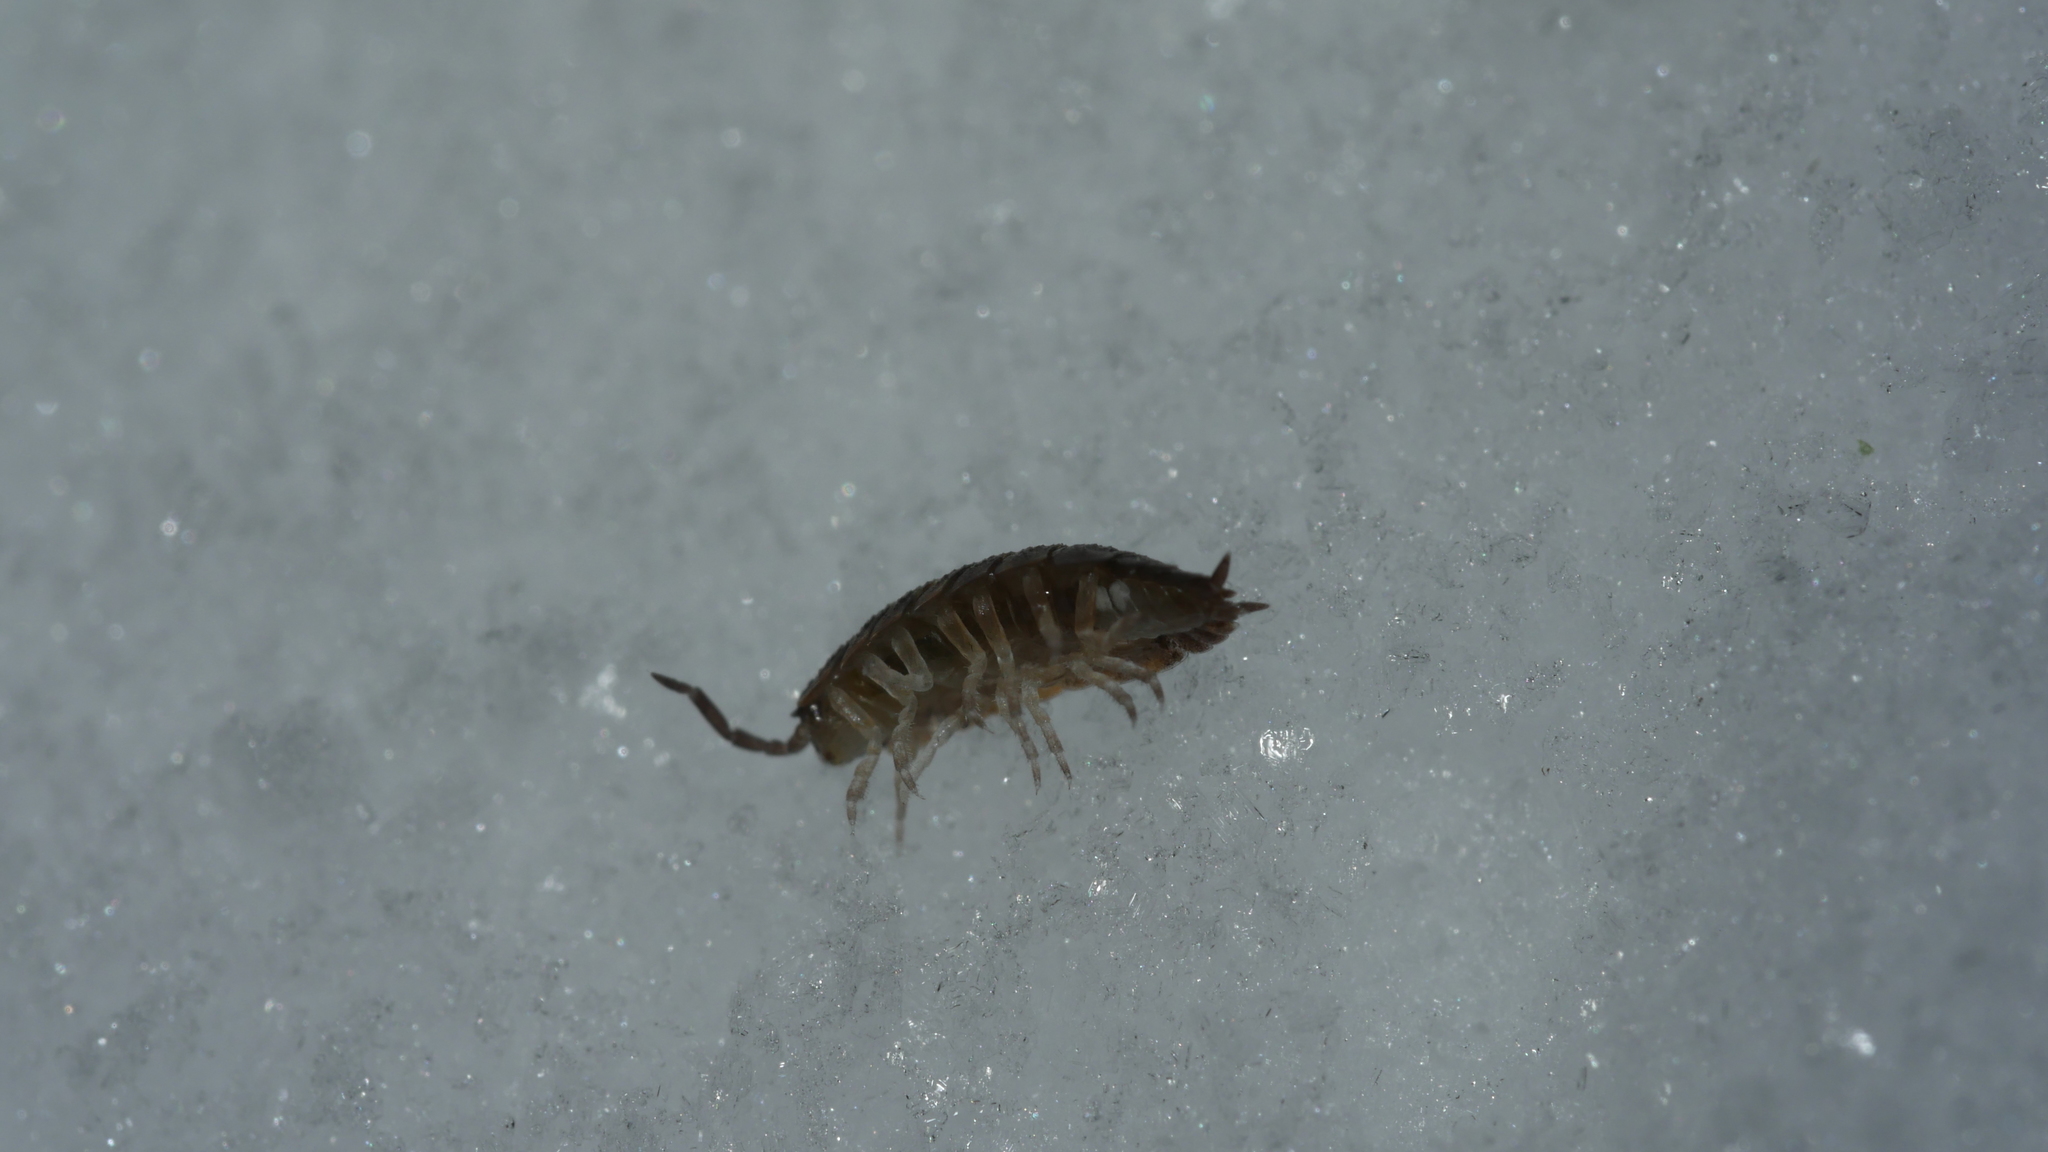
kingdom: Animalia
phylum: Arthropoda
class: Malacostraca
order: Isopoda
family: Porcellionidae
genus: Porcellio
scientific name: Porcellio scaber
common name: Common rough woodlouse
